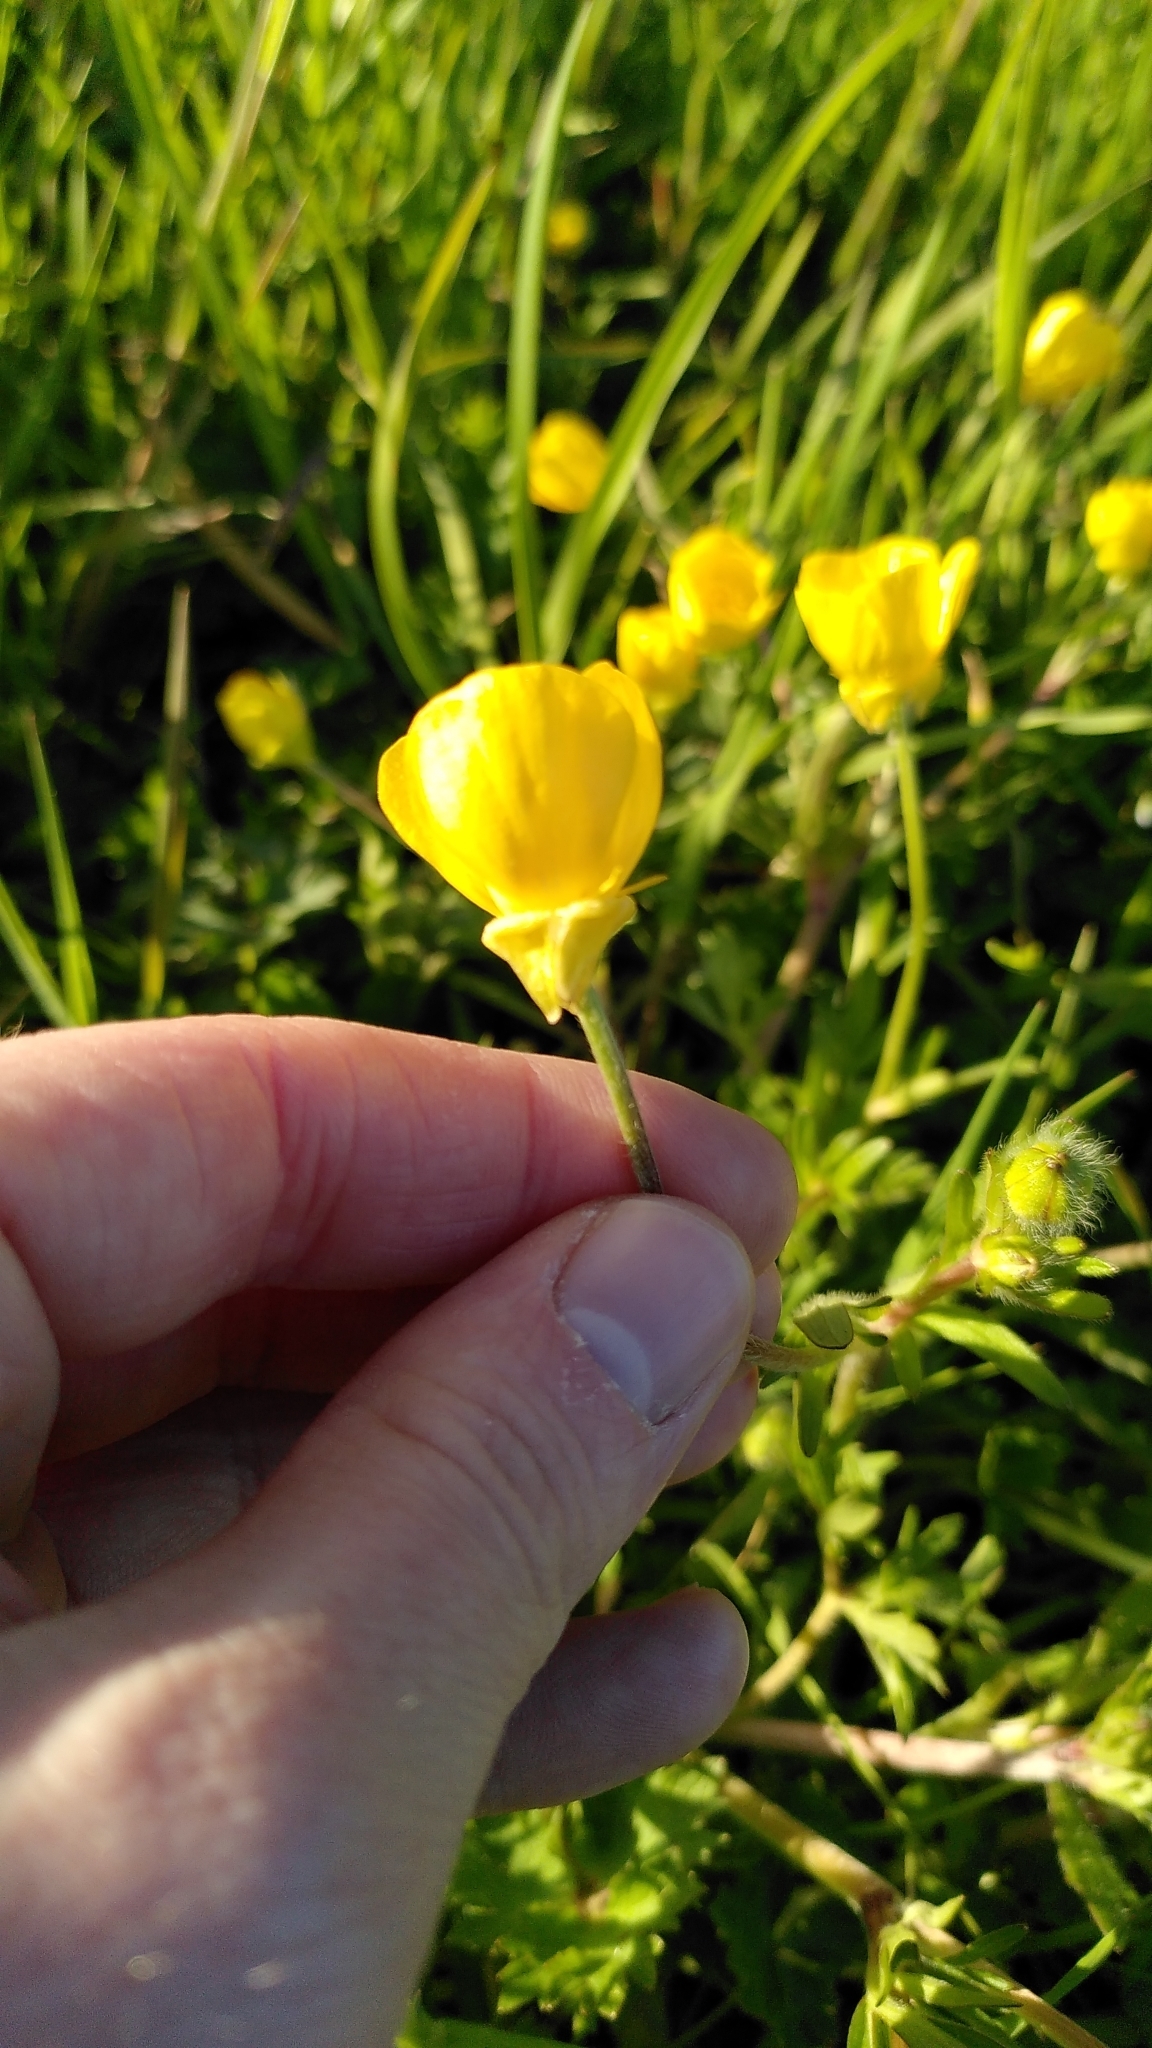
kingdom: Plantae
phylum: Tracheophyta
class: Magnoliopsida
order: Ranunculales
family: Ranunculaceae
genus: Ranunculus
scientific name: Ranunculus bulbosus
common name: Bulbous buttercup
